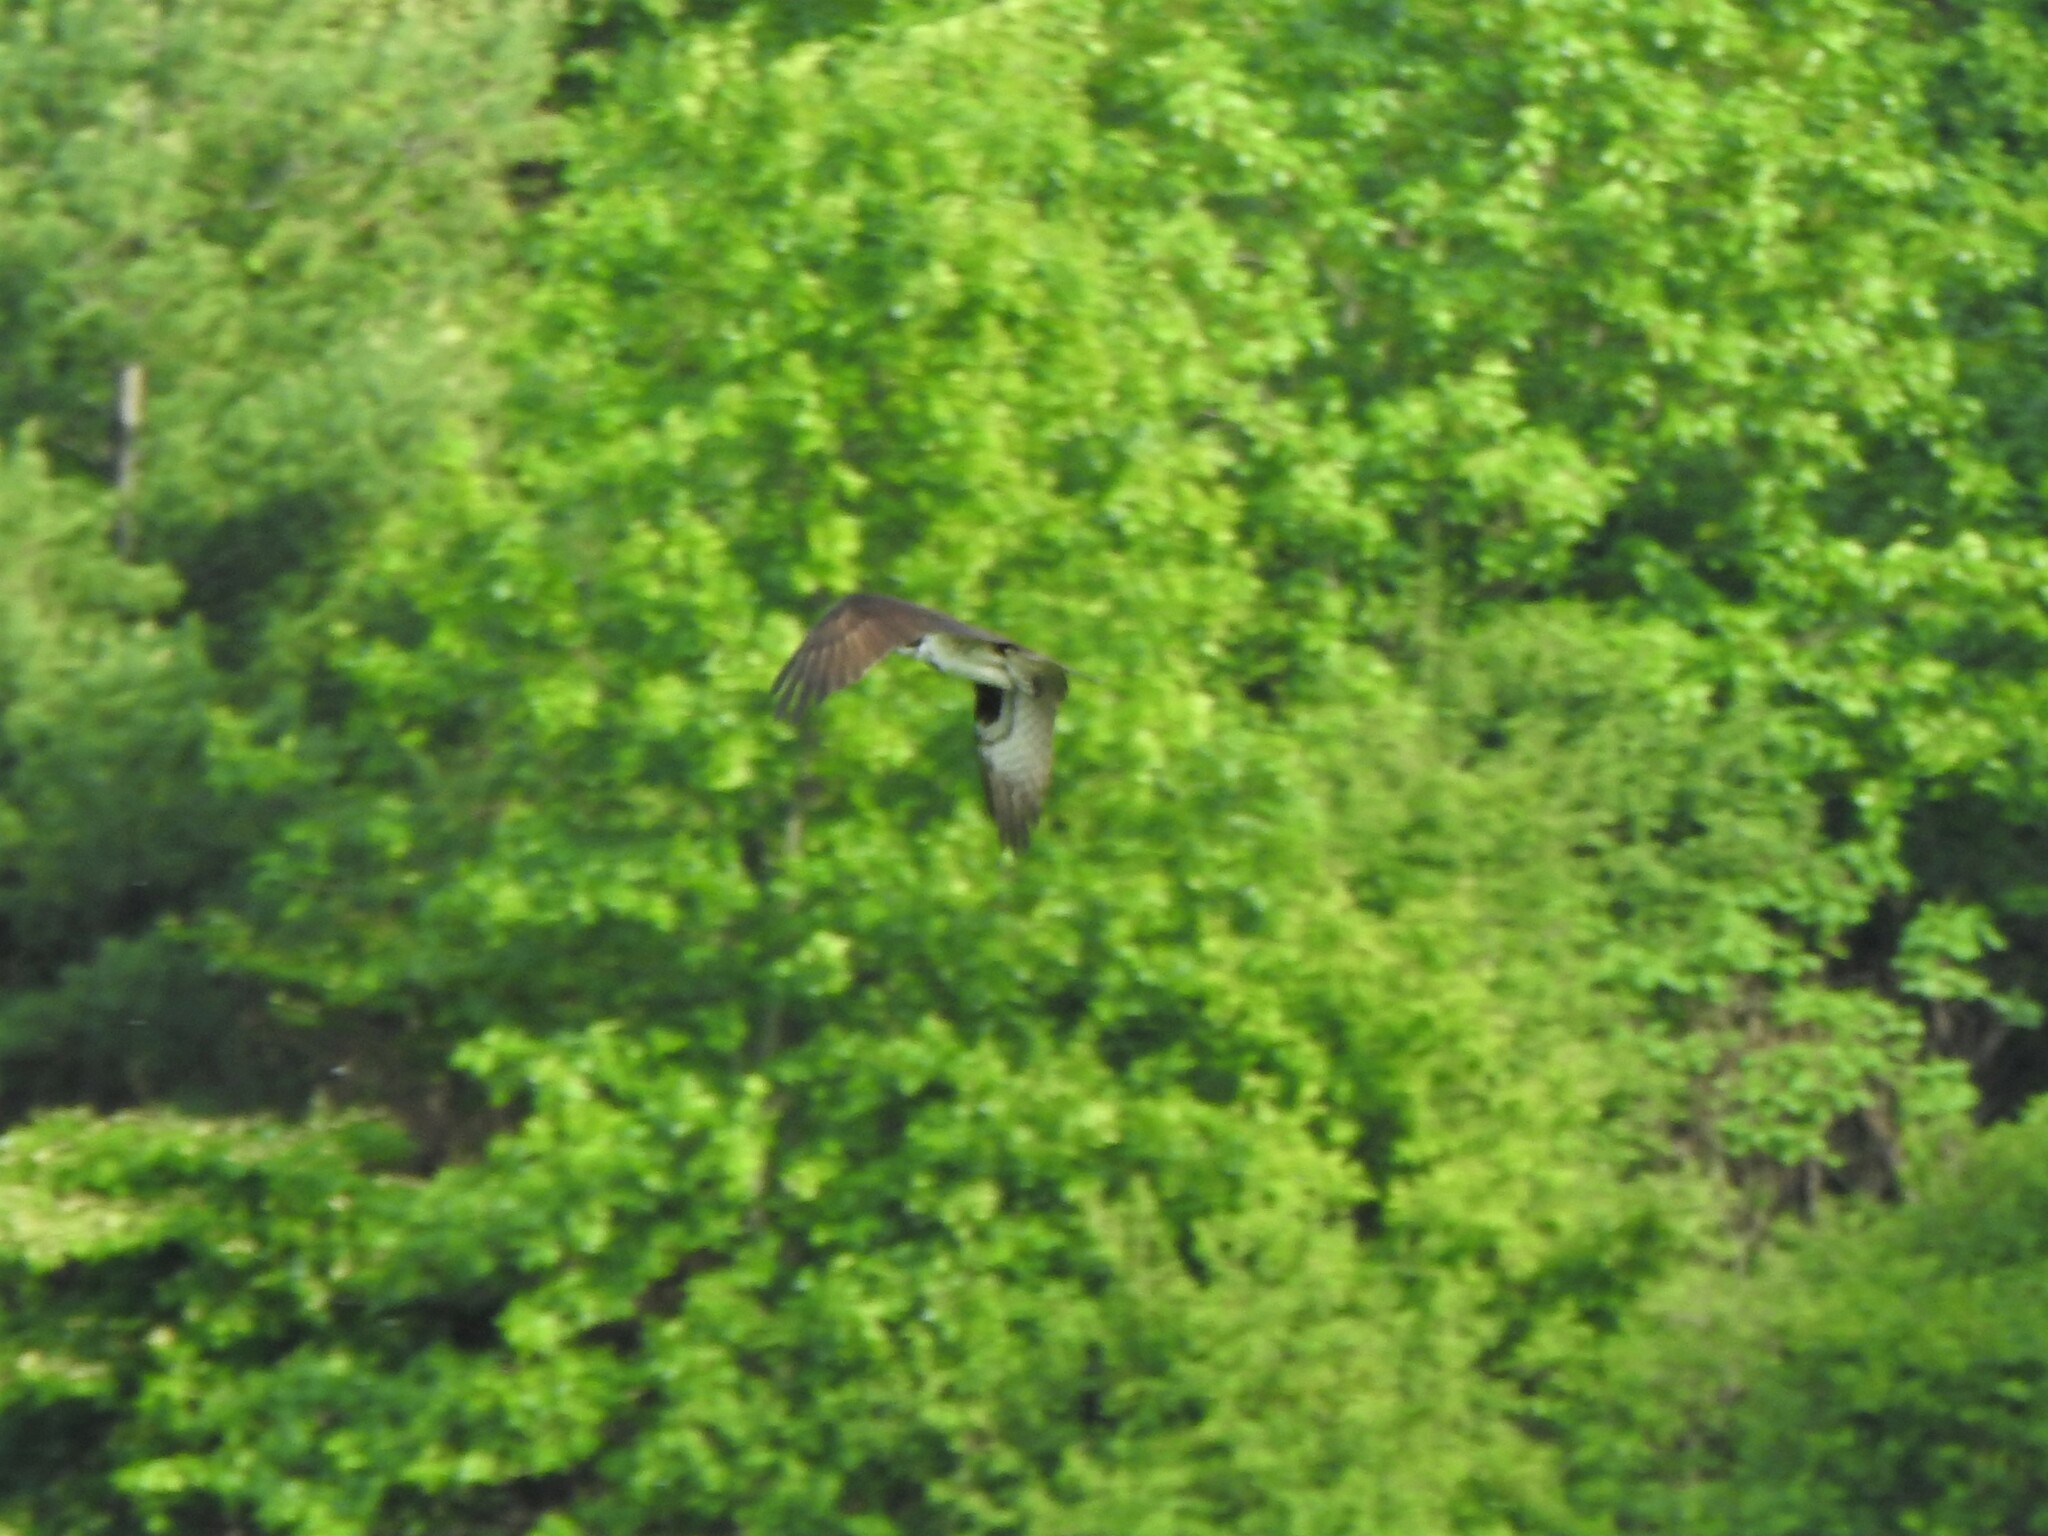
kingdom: Animalia
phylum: Chordata
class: Aves
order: Accipitriformes
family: Pandionidae
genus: Pandion
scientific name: Pandion haliaetus
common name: Osprey
